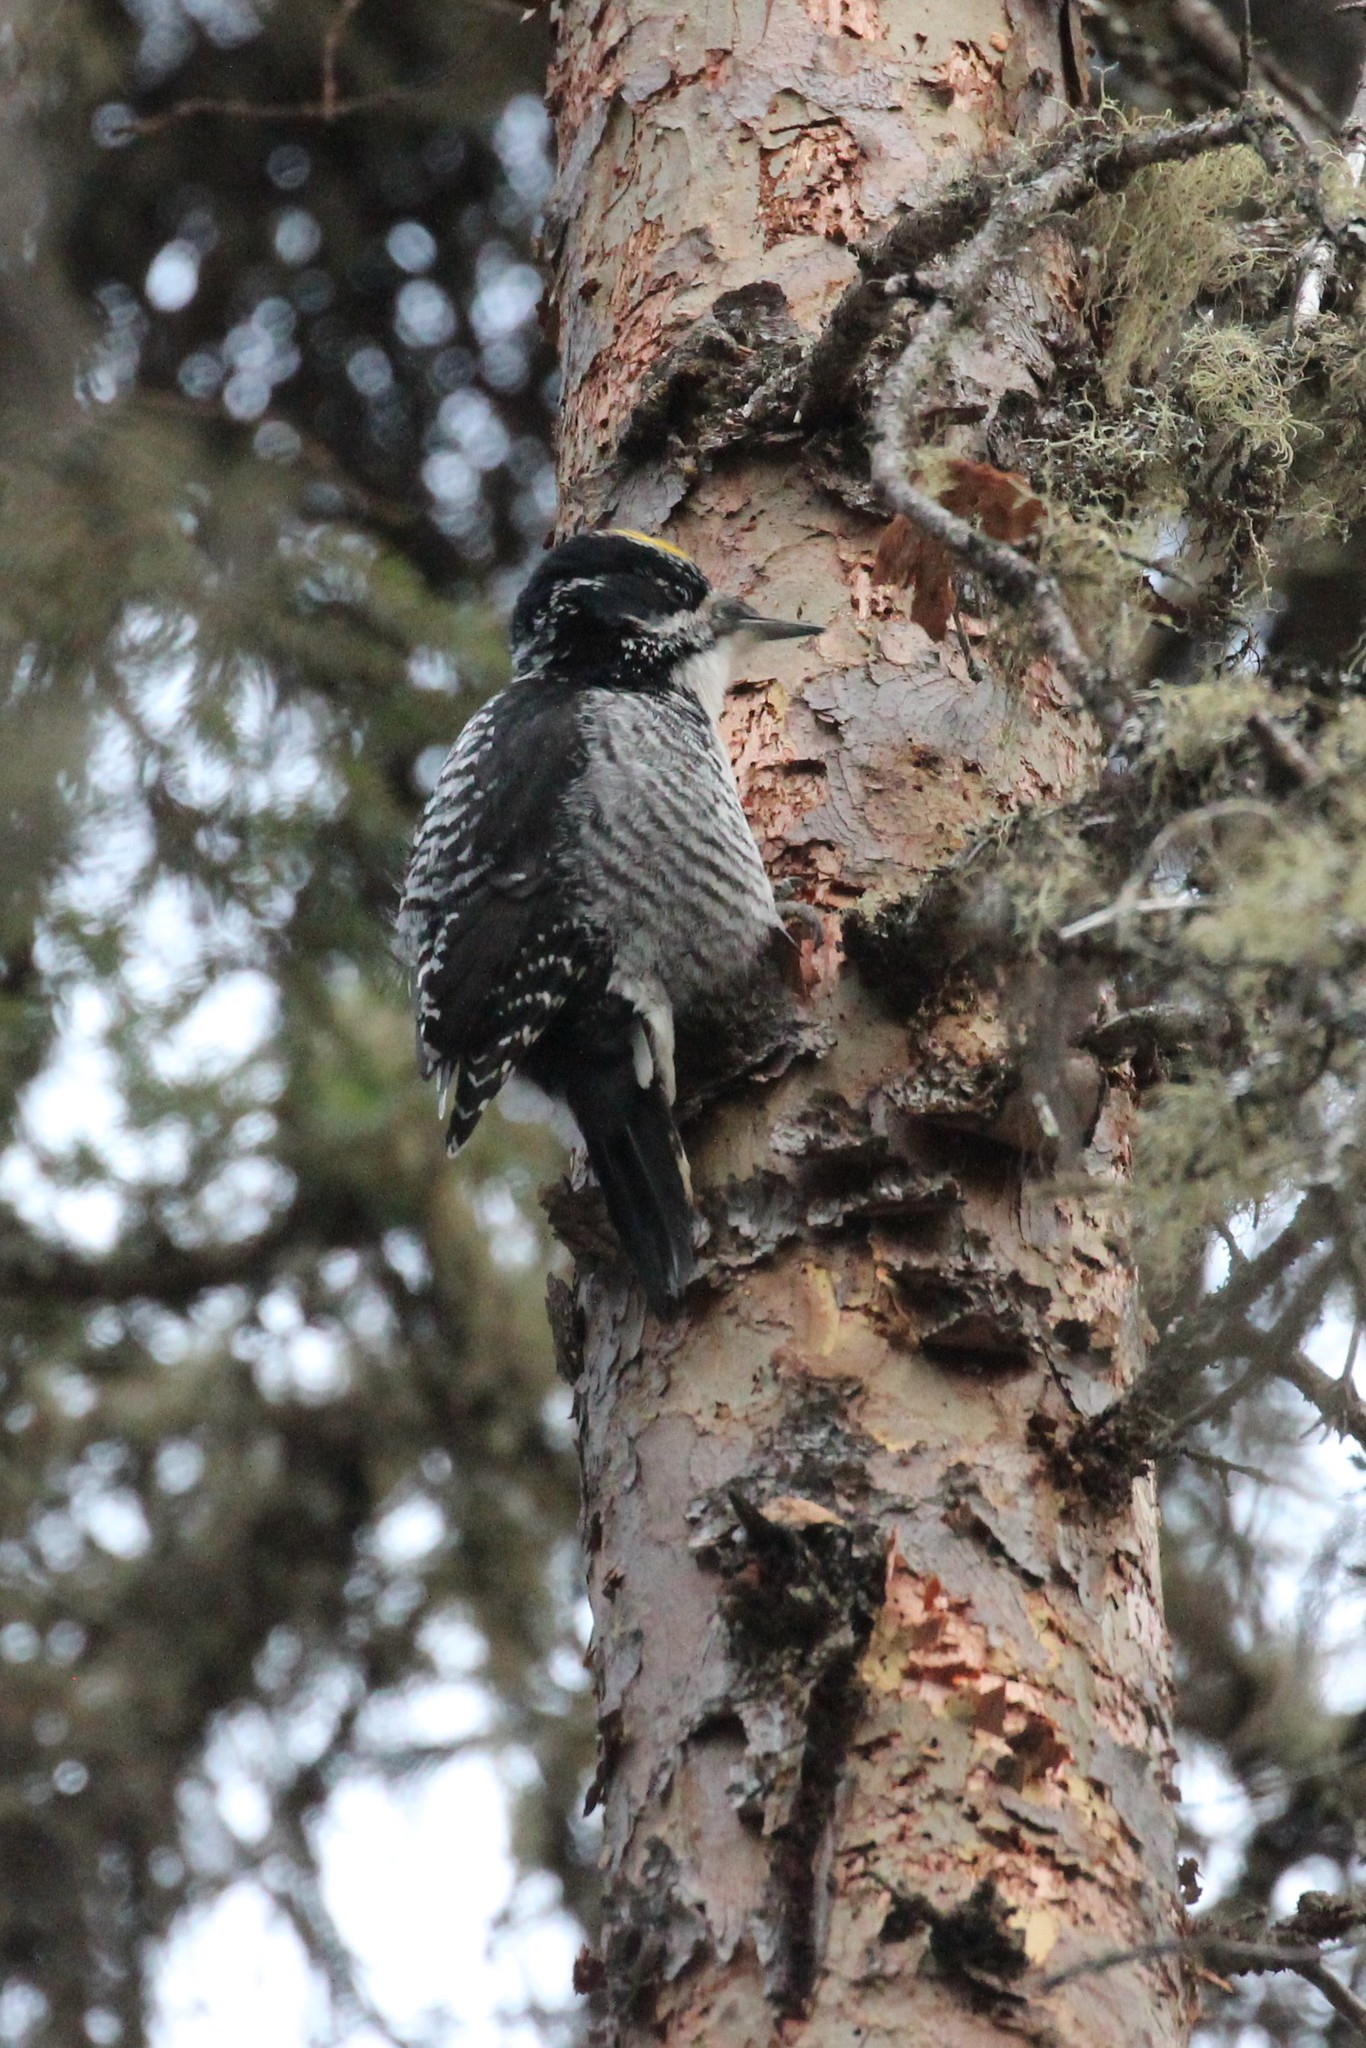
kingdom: Animalia
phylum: Chordata
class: Aves
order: Piciformes
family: Picidae
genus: Picoides
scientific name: Picoides dorsalis
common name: American three-toed woodpecker
